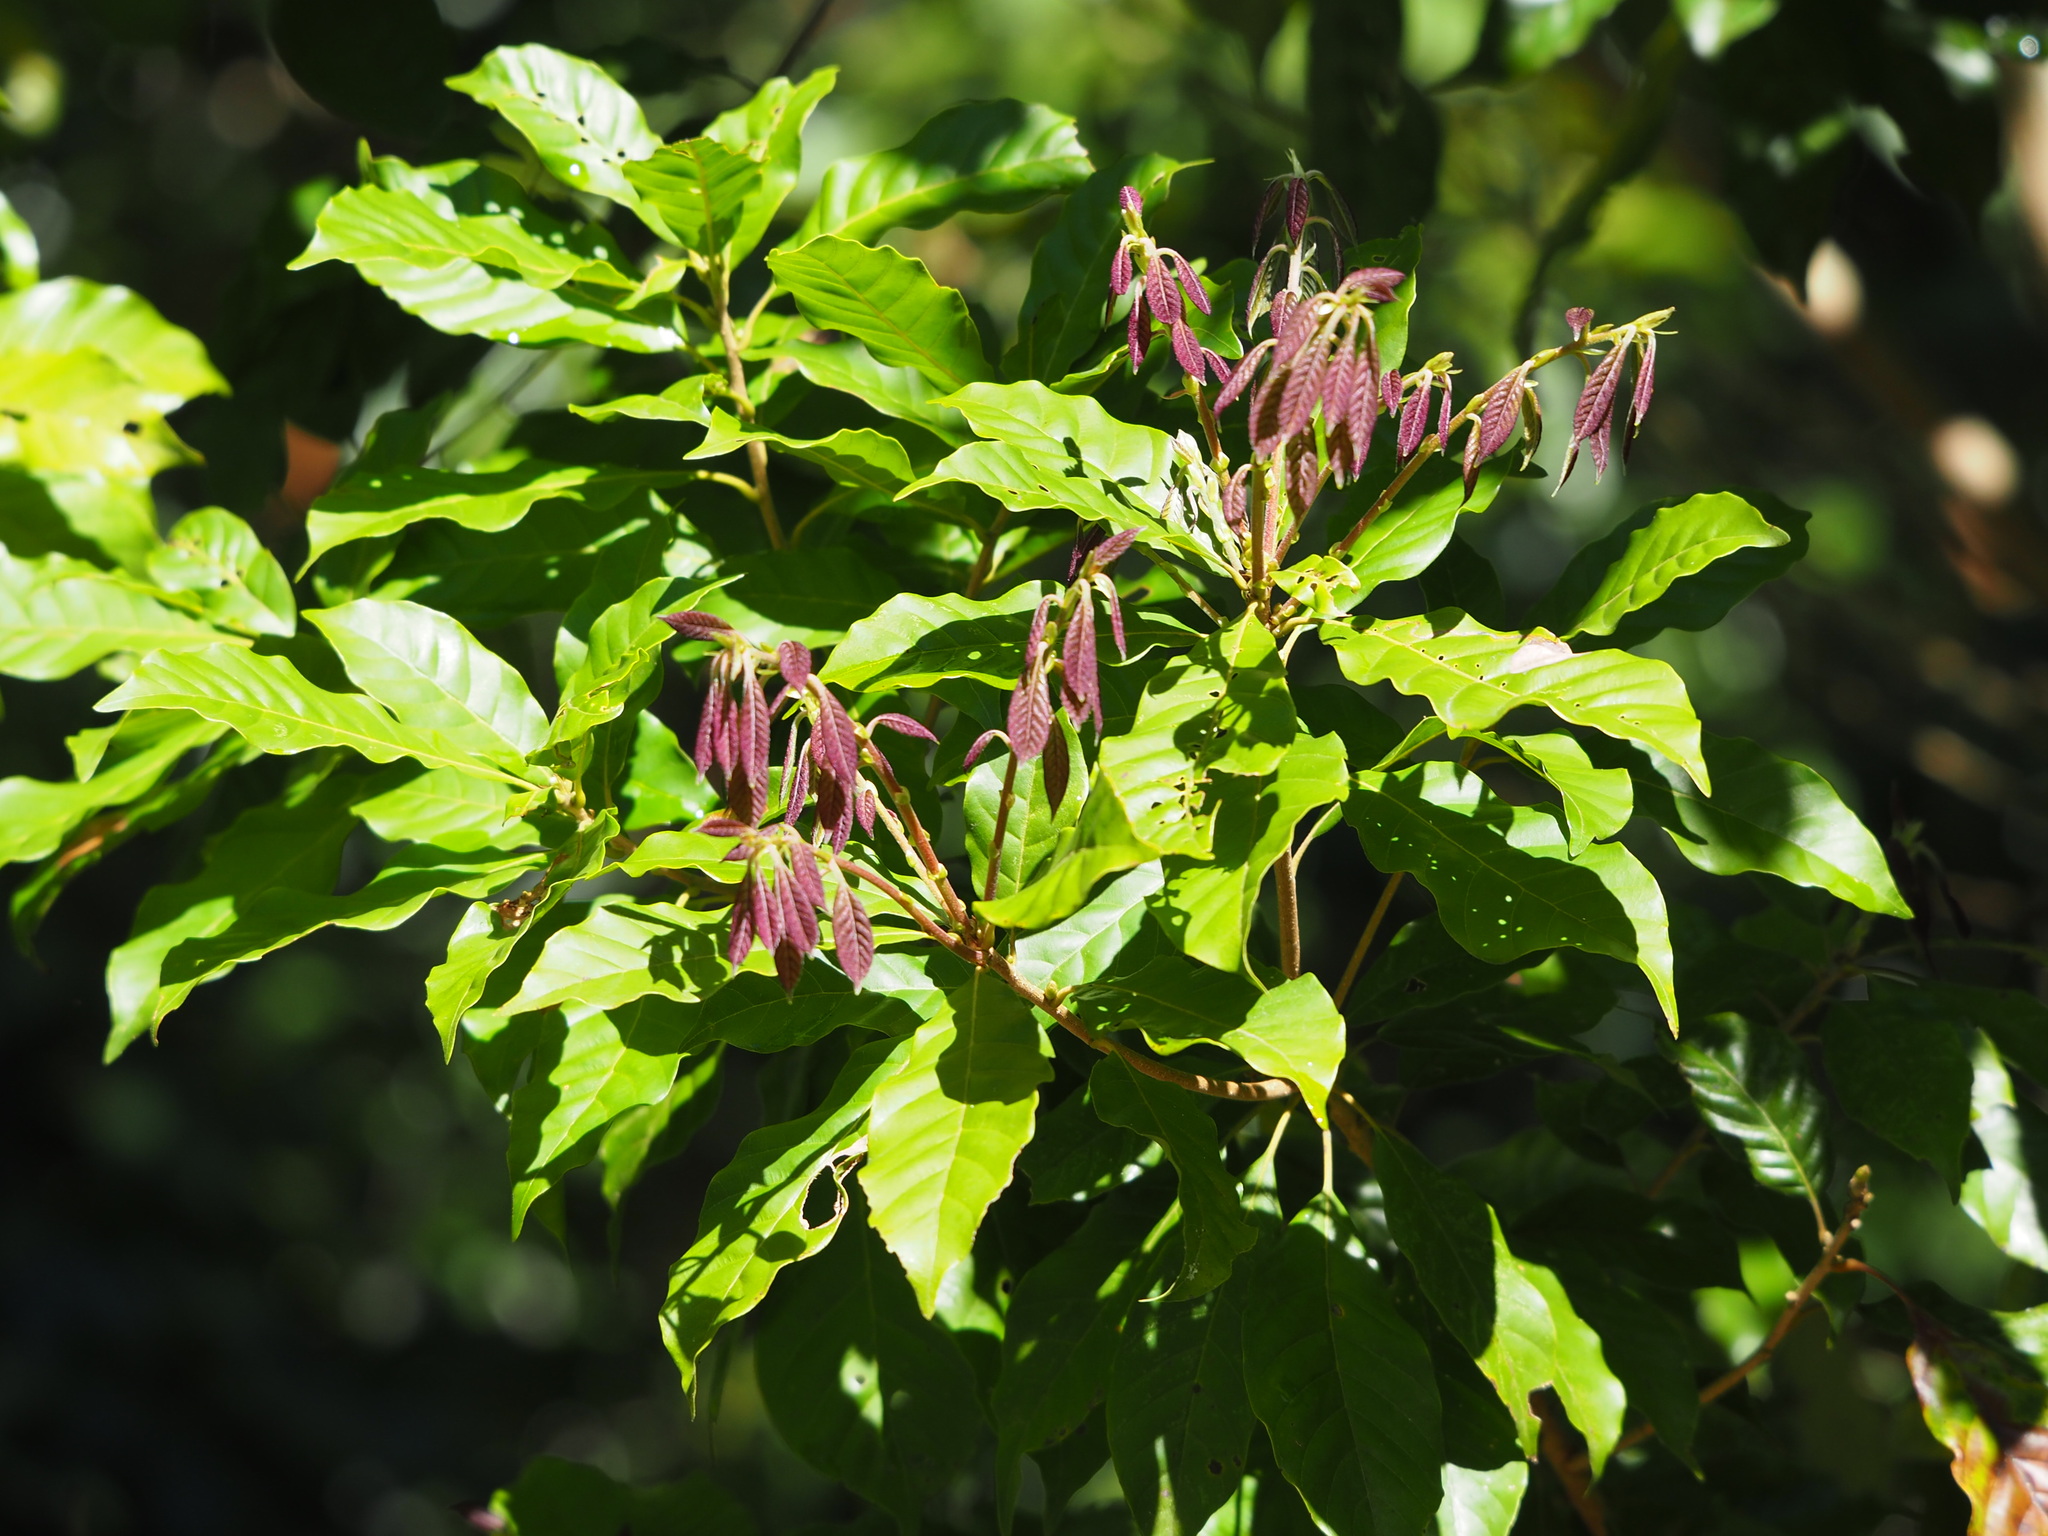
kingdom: Plantae
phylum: Tracheophyta
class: Magnoliopsida
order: Fagales
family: Fagaceae
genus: Lithocarpus
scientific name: Lithocarpus konishii
